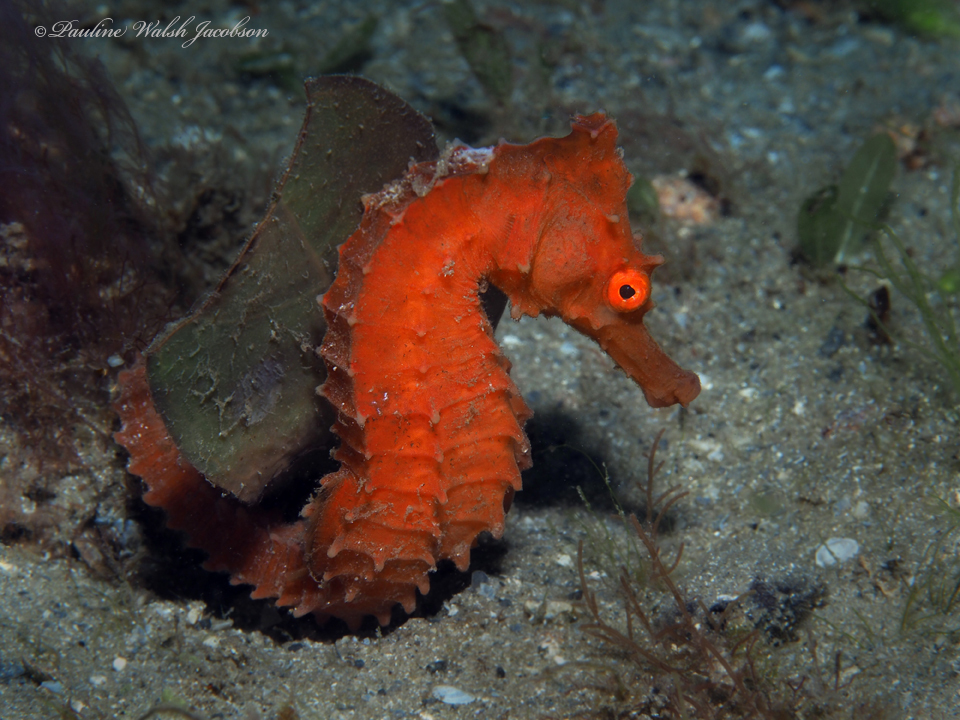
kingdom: Animalia
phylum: Chordata
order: Syngnathiformes
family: Syngnathidae
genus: Hippocampus
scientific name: Hippocampus erectus
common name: Lined seahorse
